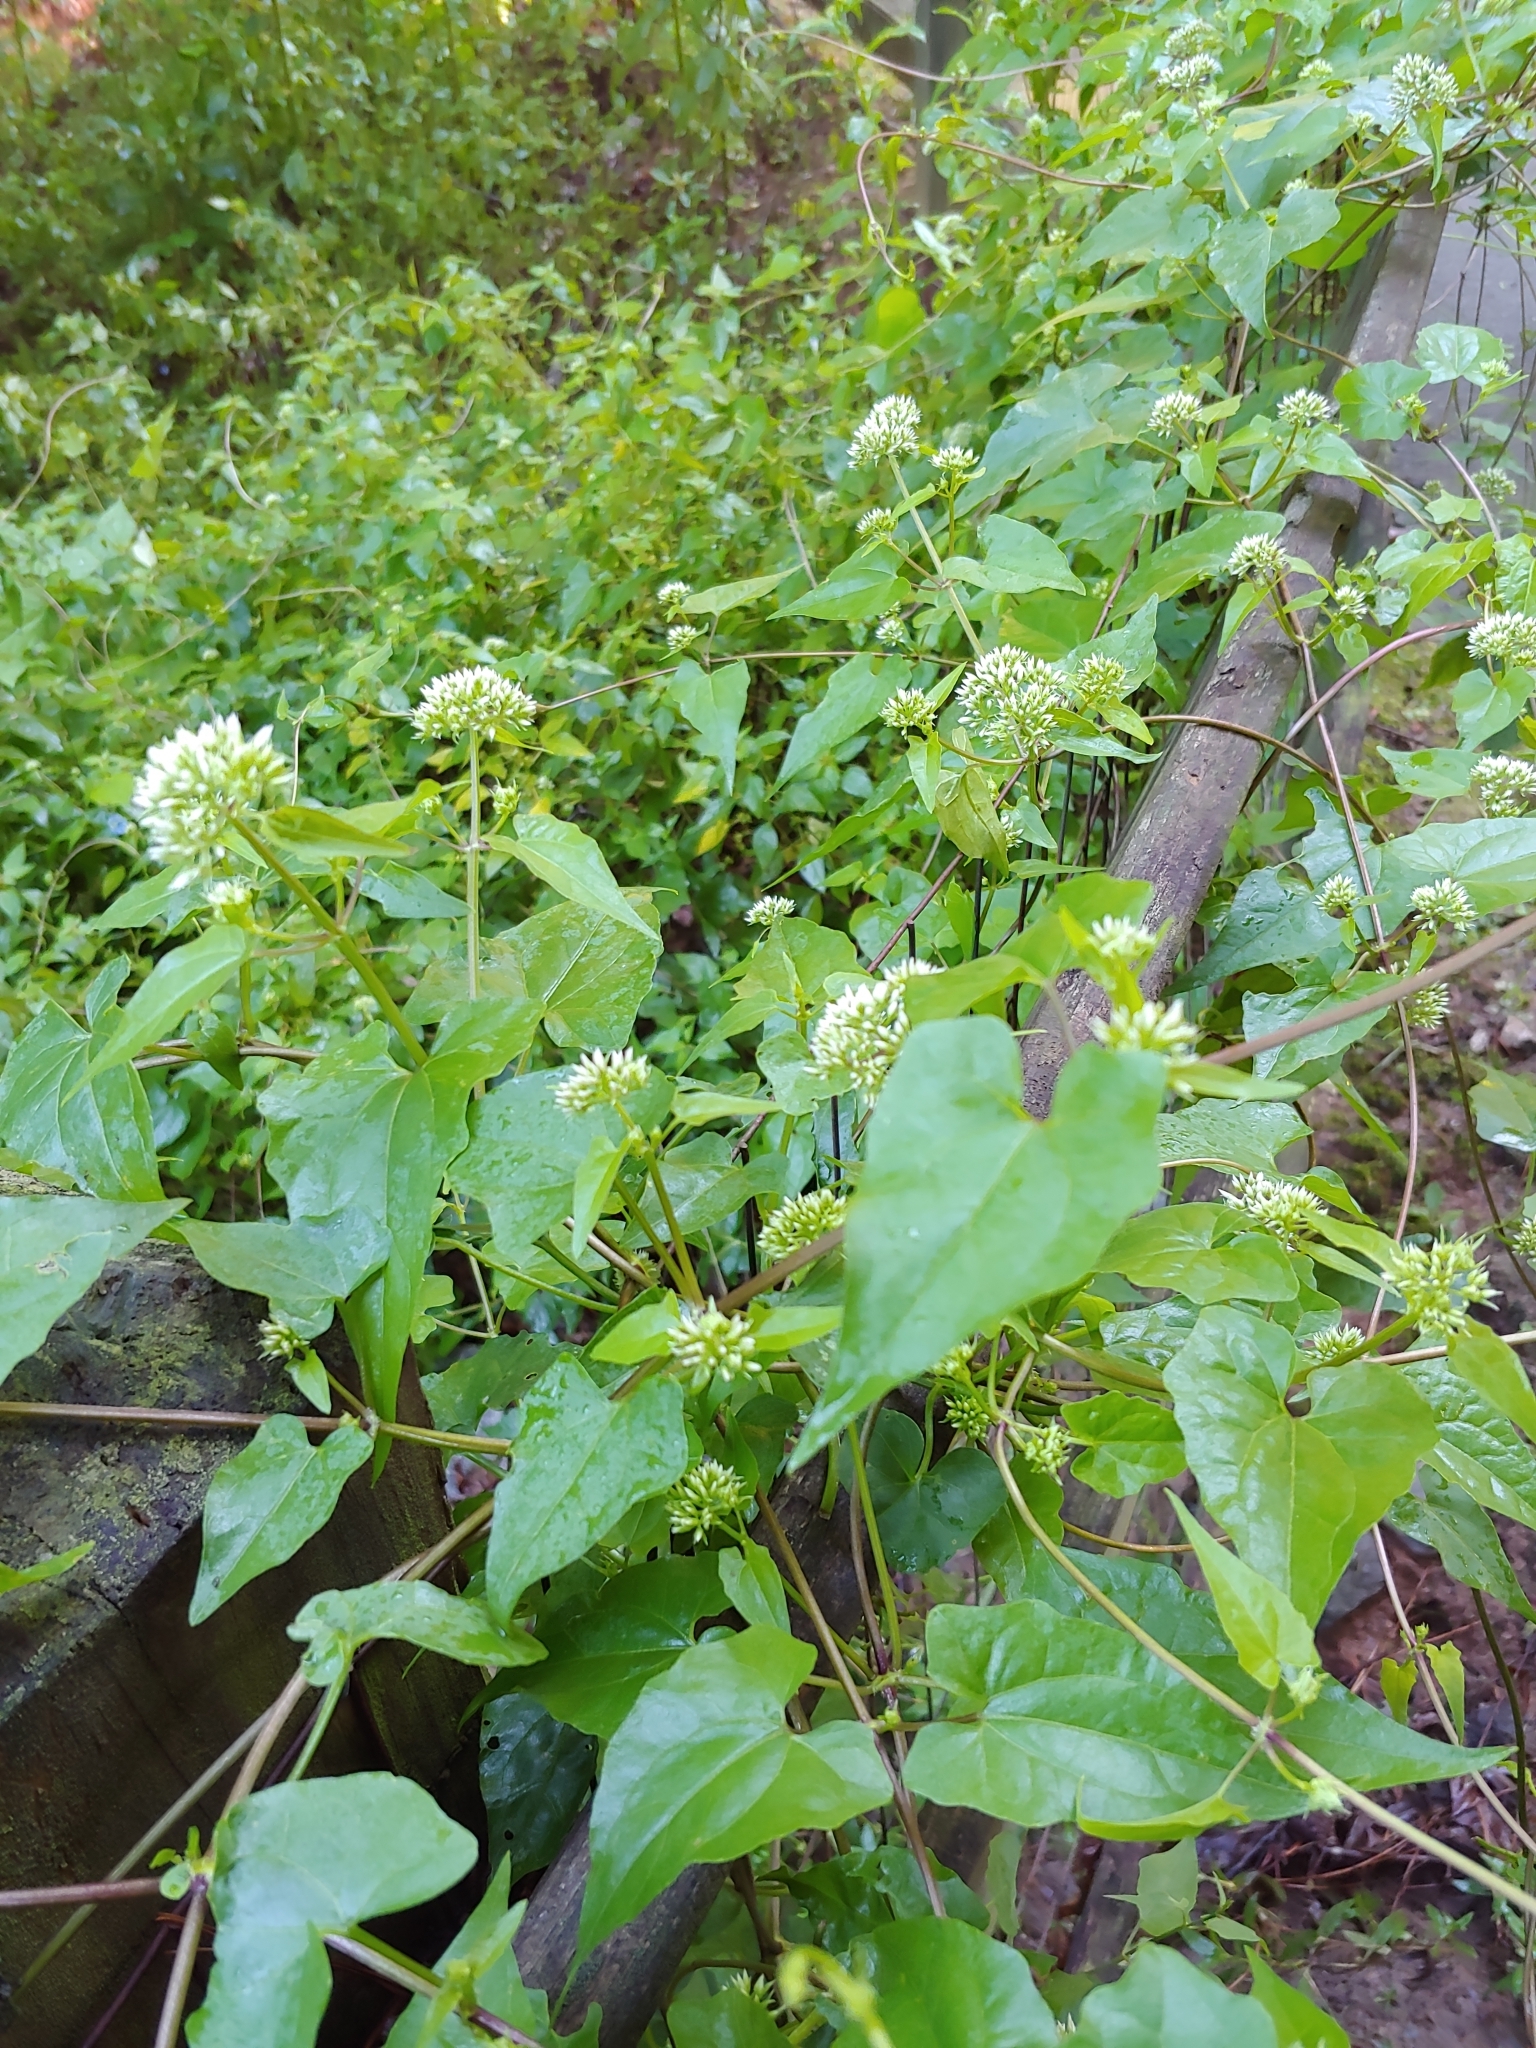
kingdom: Plantae
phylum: Tracheophyta
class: Magnoliopsida
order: Asterales
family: Asteraceae
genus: Mikania
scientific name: Mikania scandens
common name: Climbing hempvine
